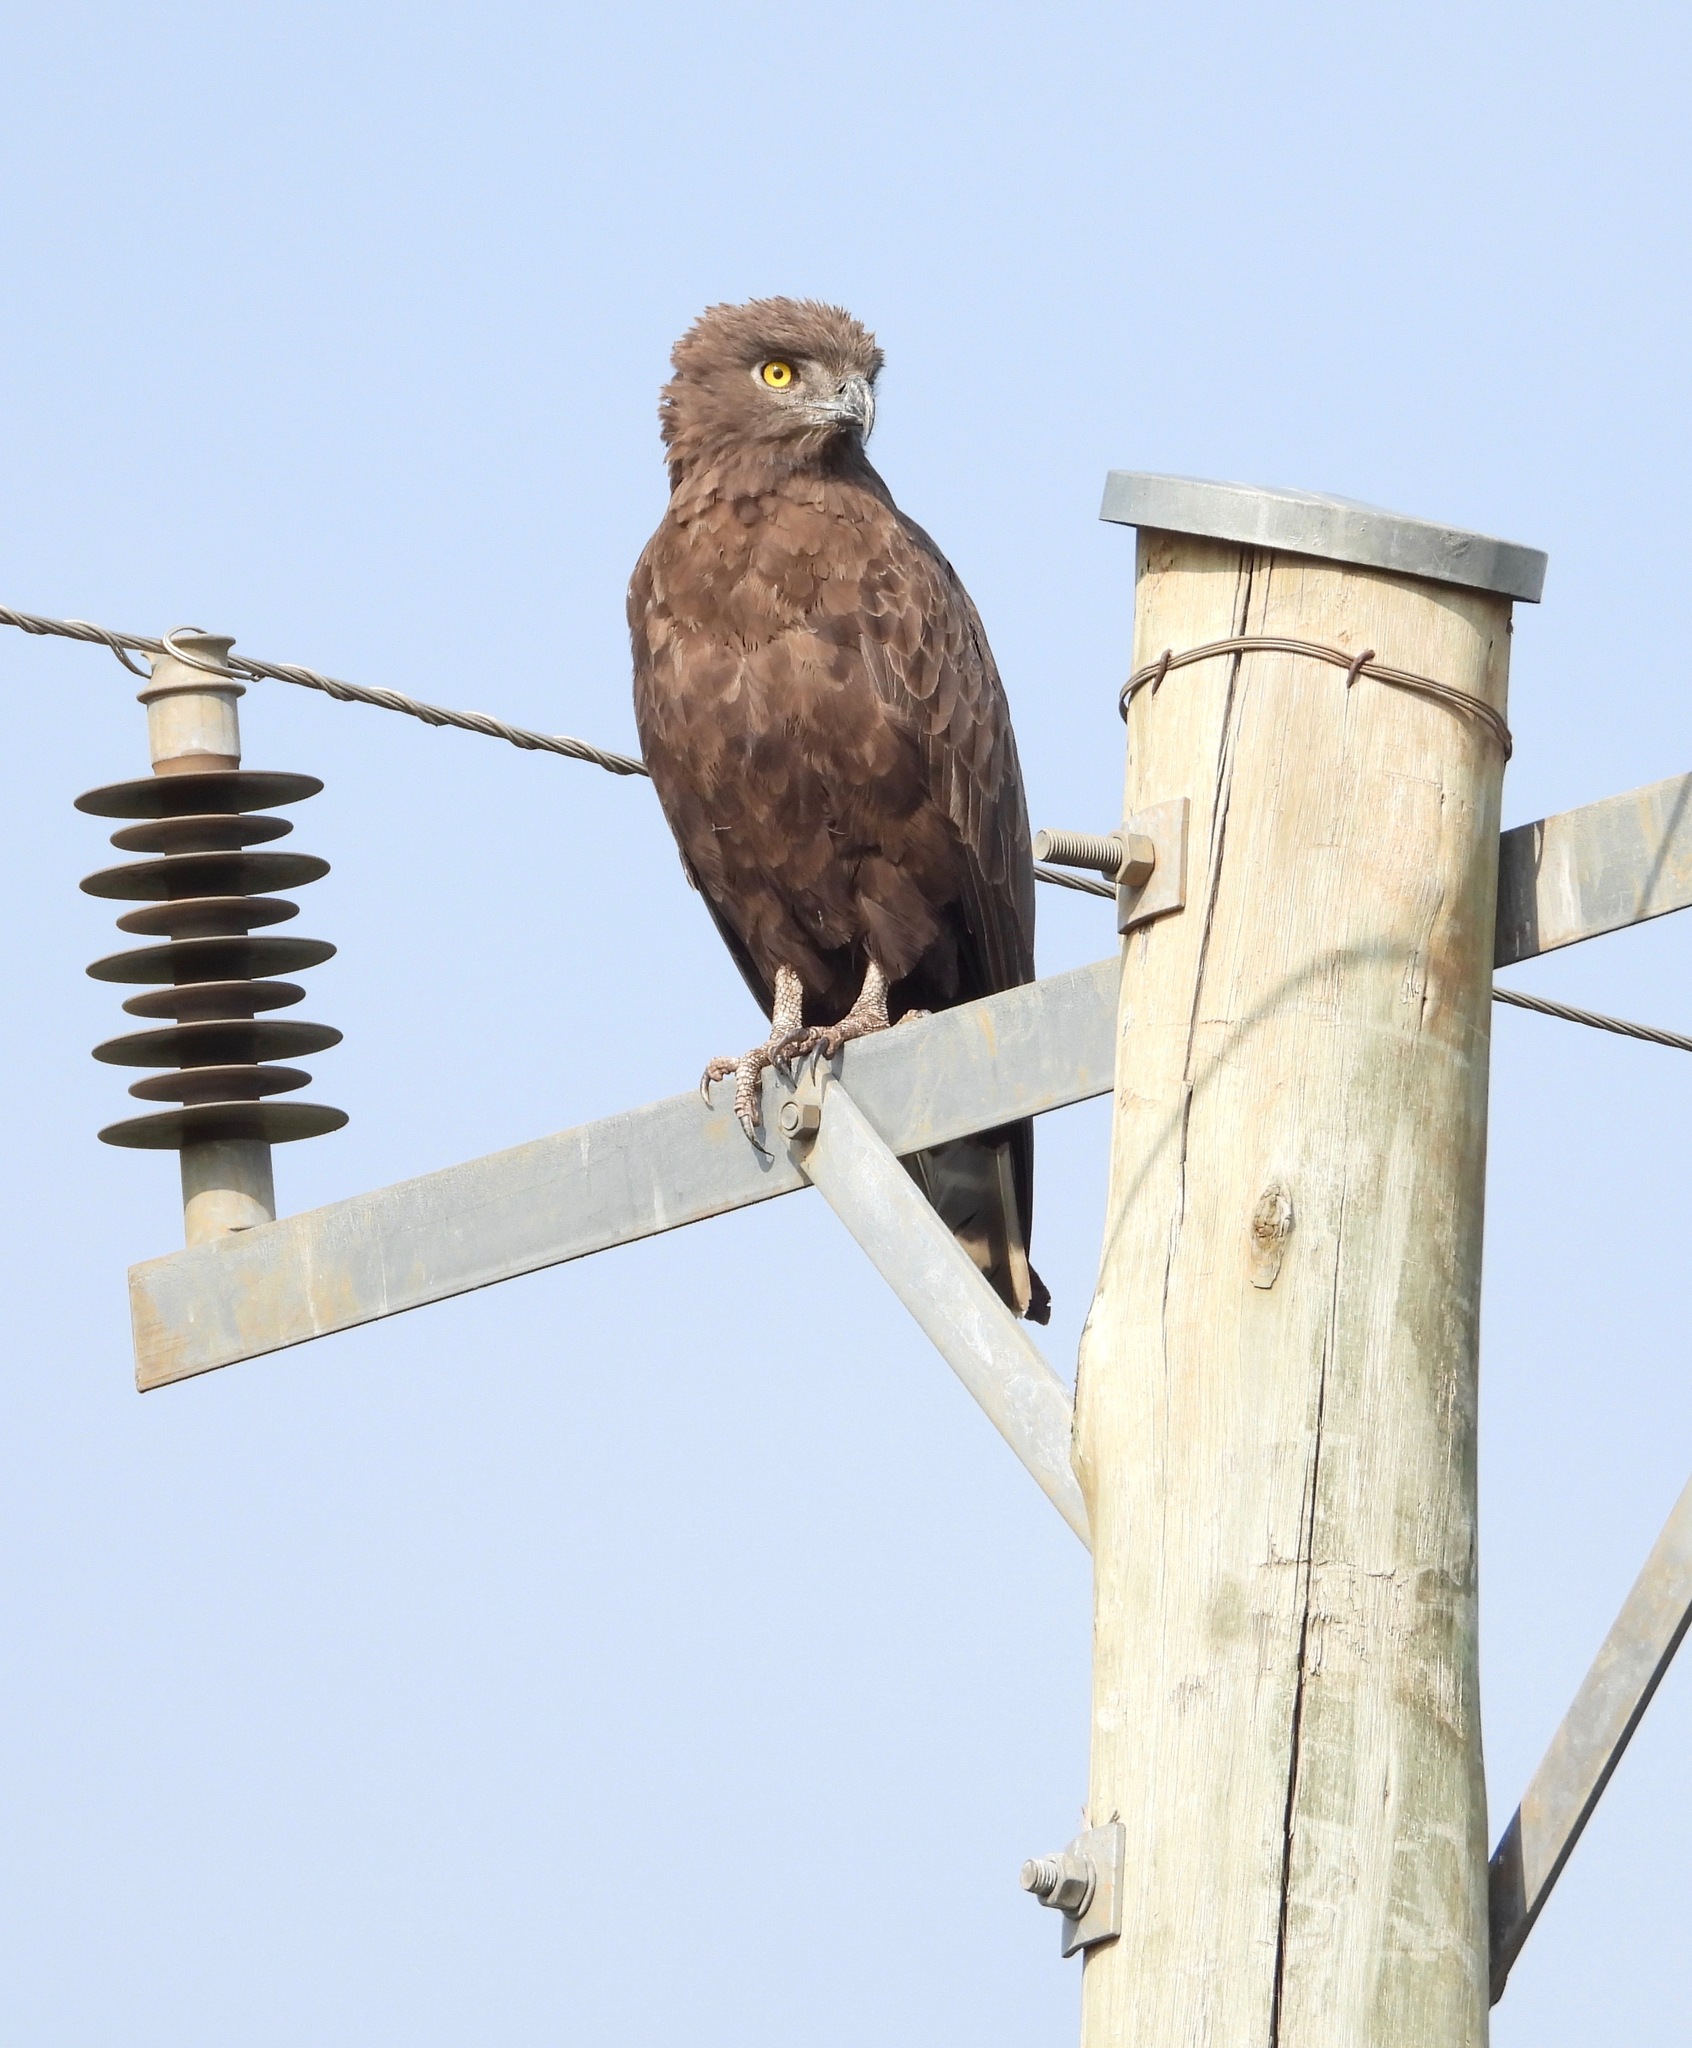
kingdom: Animalia
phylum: Chordata
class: Aves
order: Accipitriformes
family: Accipitridae
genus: Circaetus
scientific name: Circaetus cinereus
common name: Brown snake eagle
